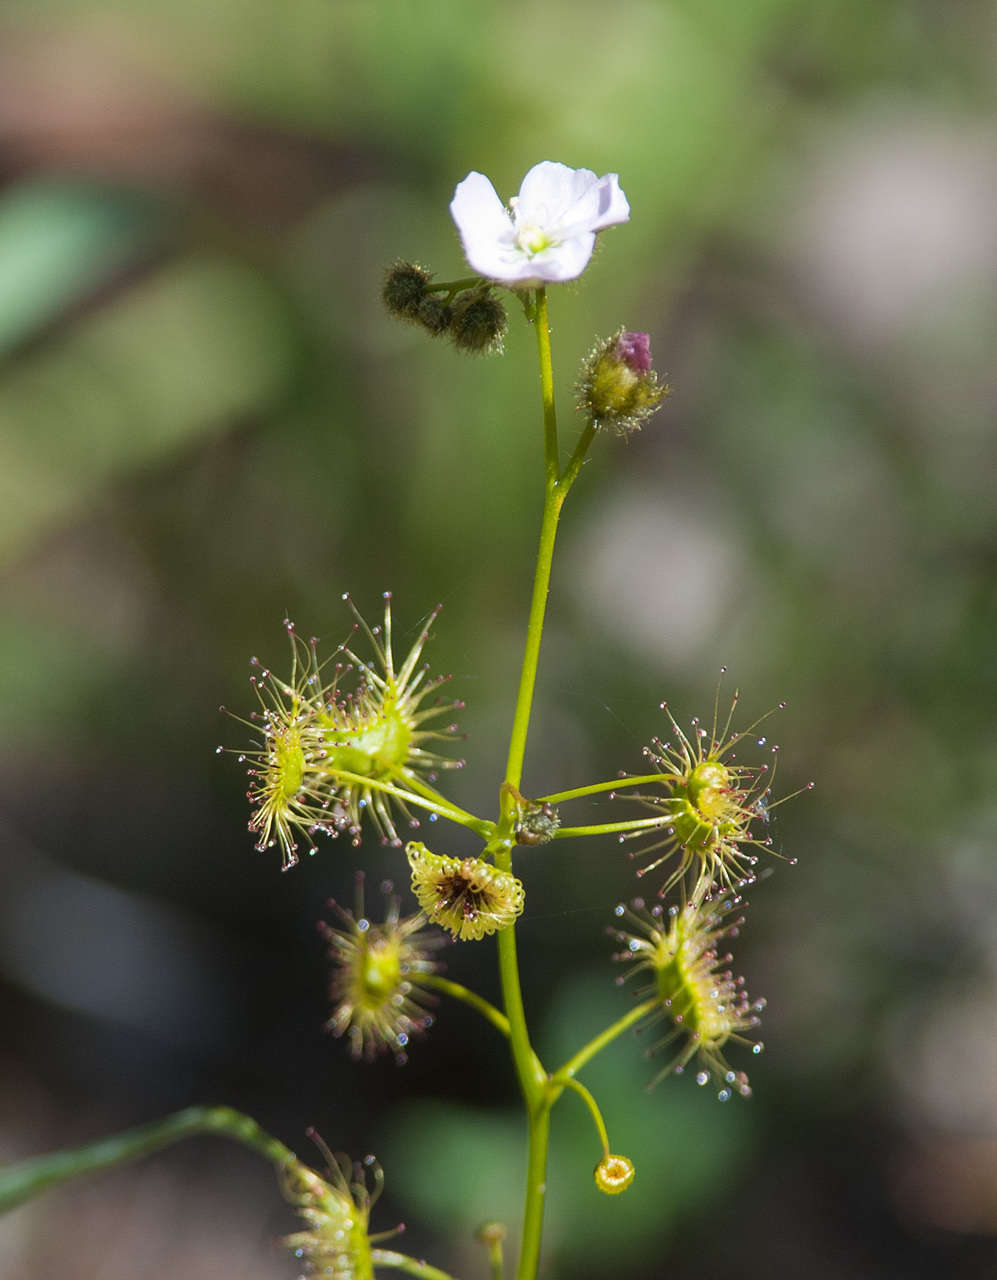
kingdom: Plantae
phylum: Tracheophyta
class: Magnoliopsida
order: Caryophyllales
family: Droseraceae
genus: Drosera
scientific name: Drosera gunniana
